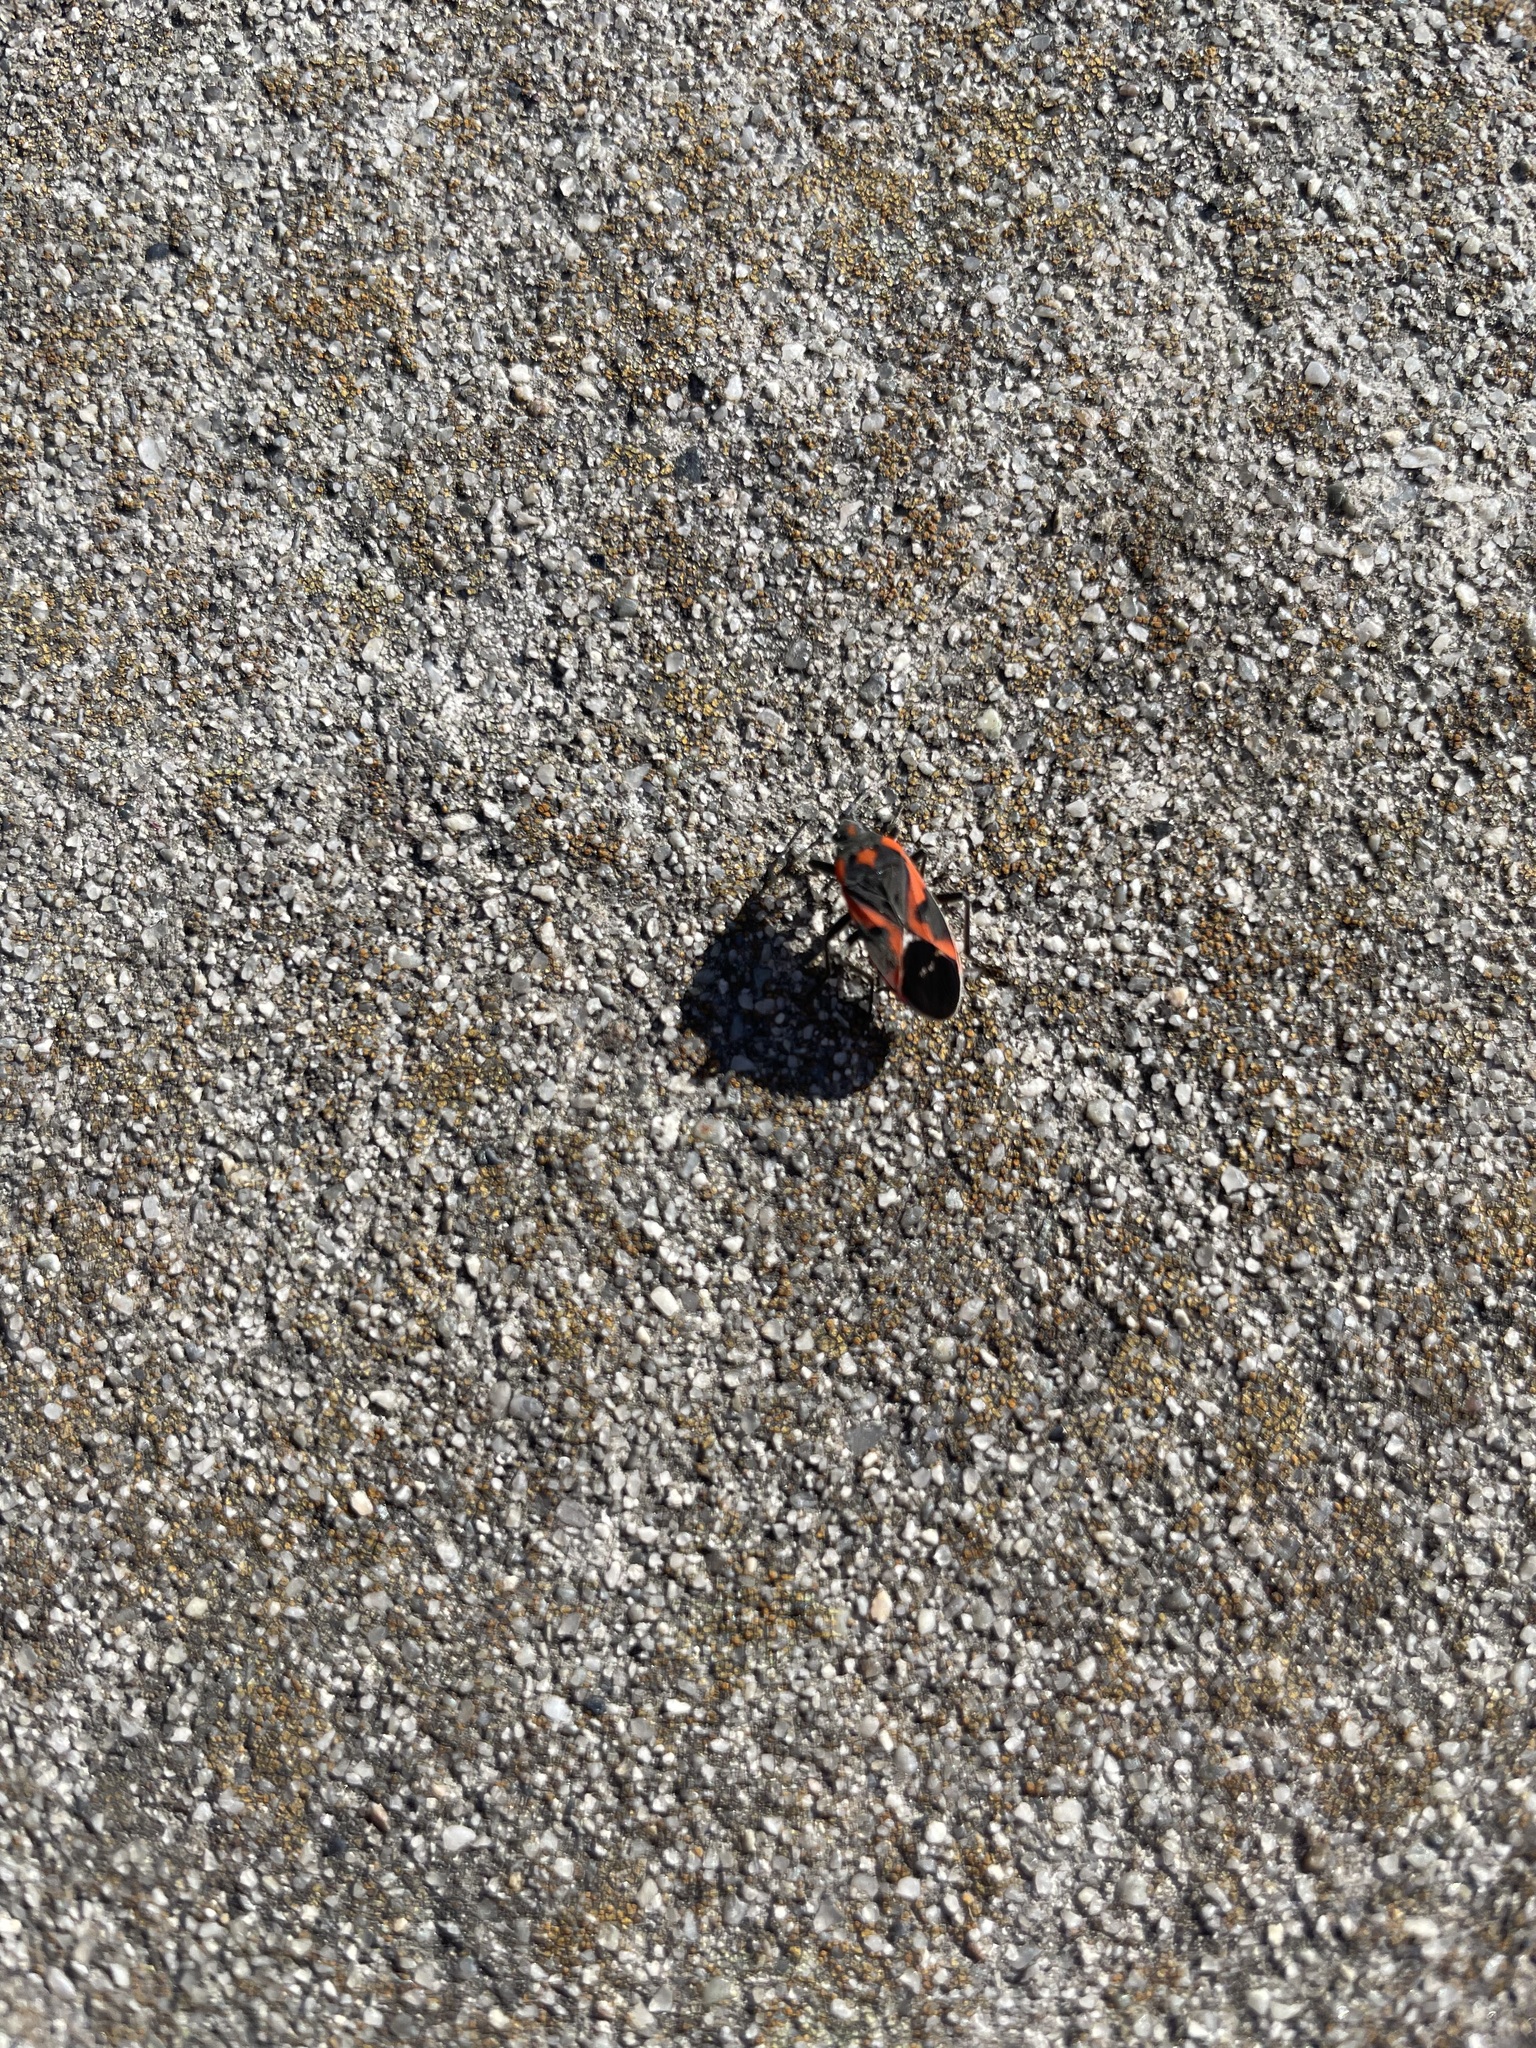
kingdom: Animalia
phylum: Arthropoda
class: Insecta
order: Hemiptera
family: Lygaeidae
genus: Lygaeus
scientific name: Lygaeus kalmii
